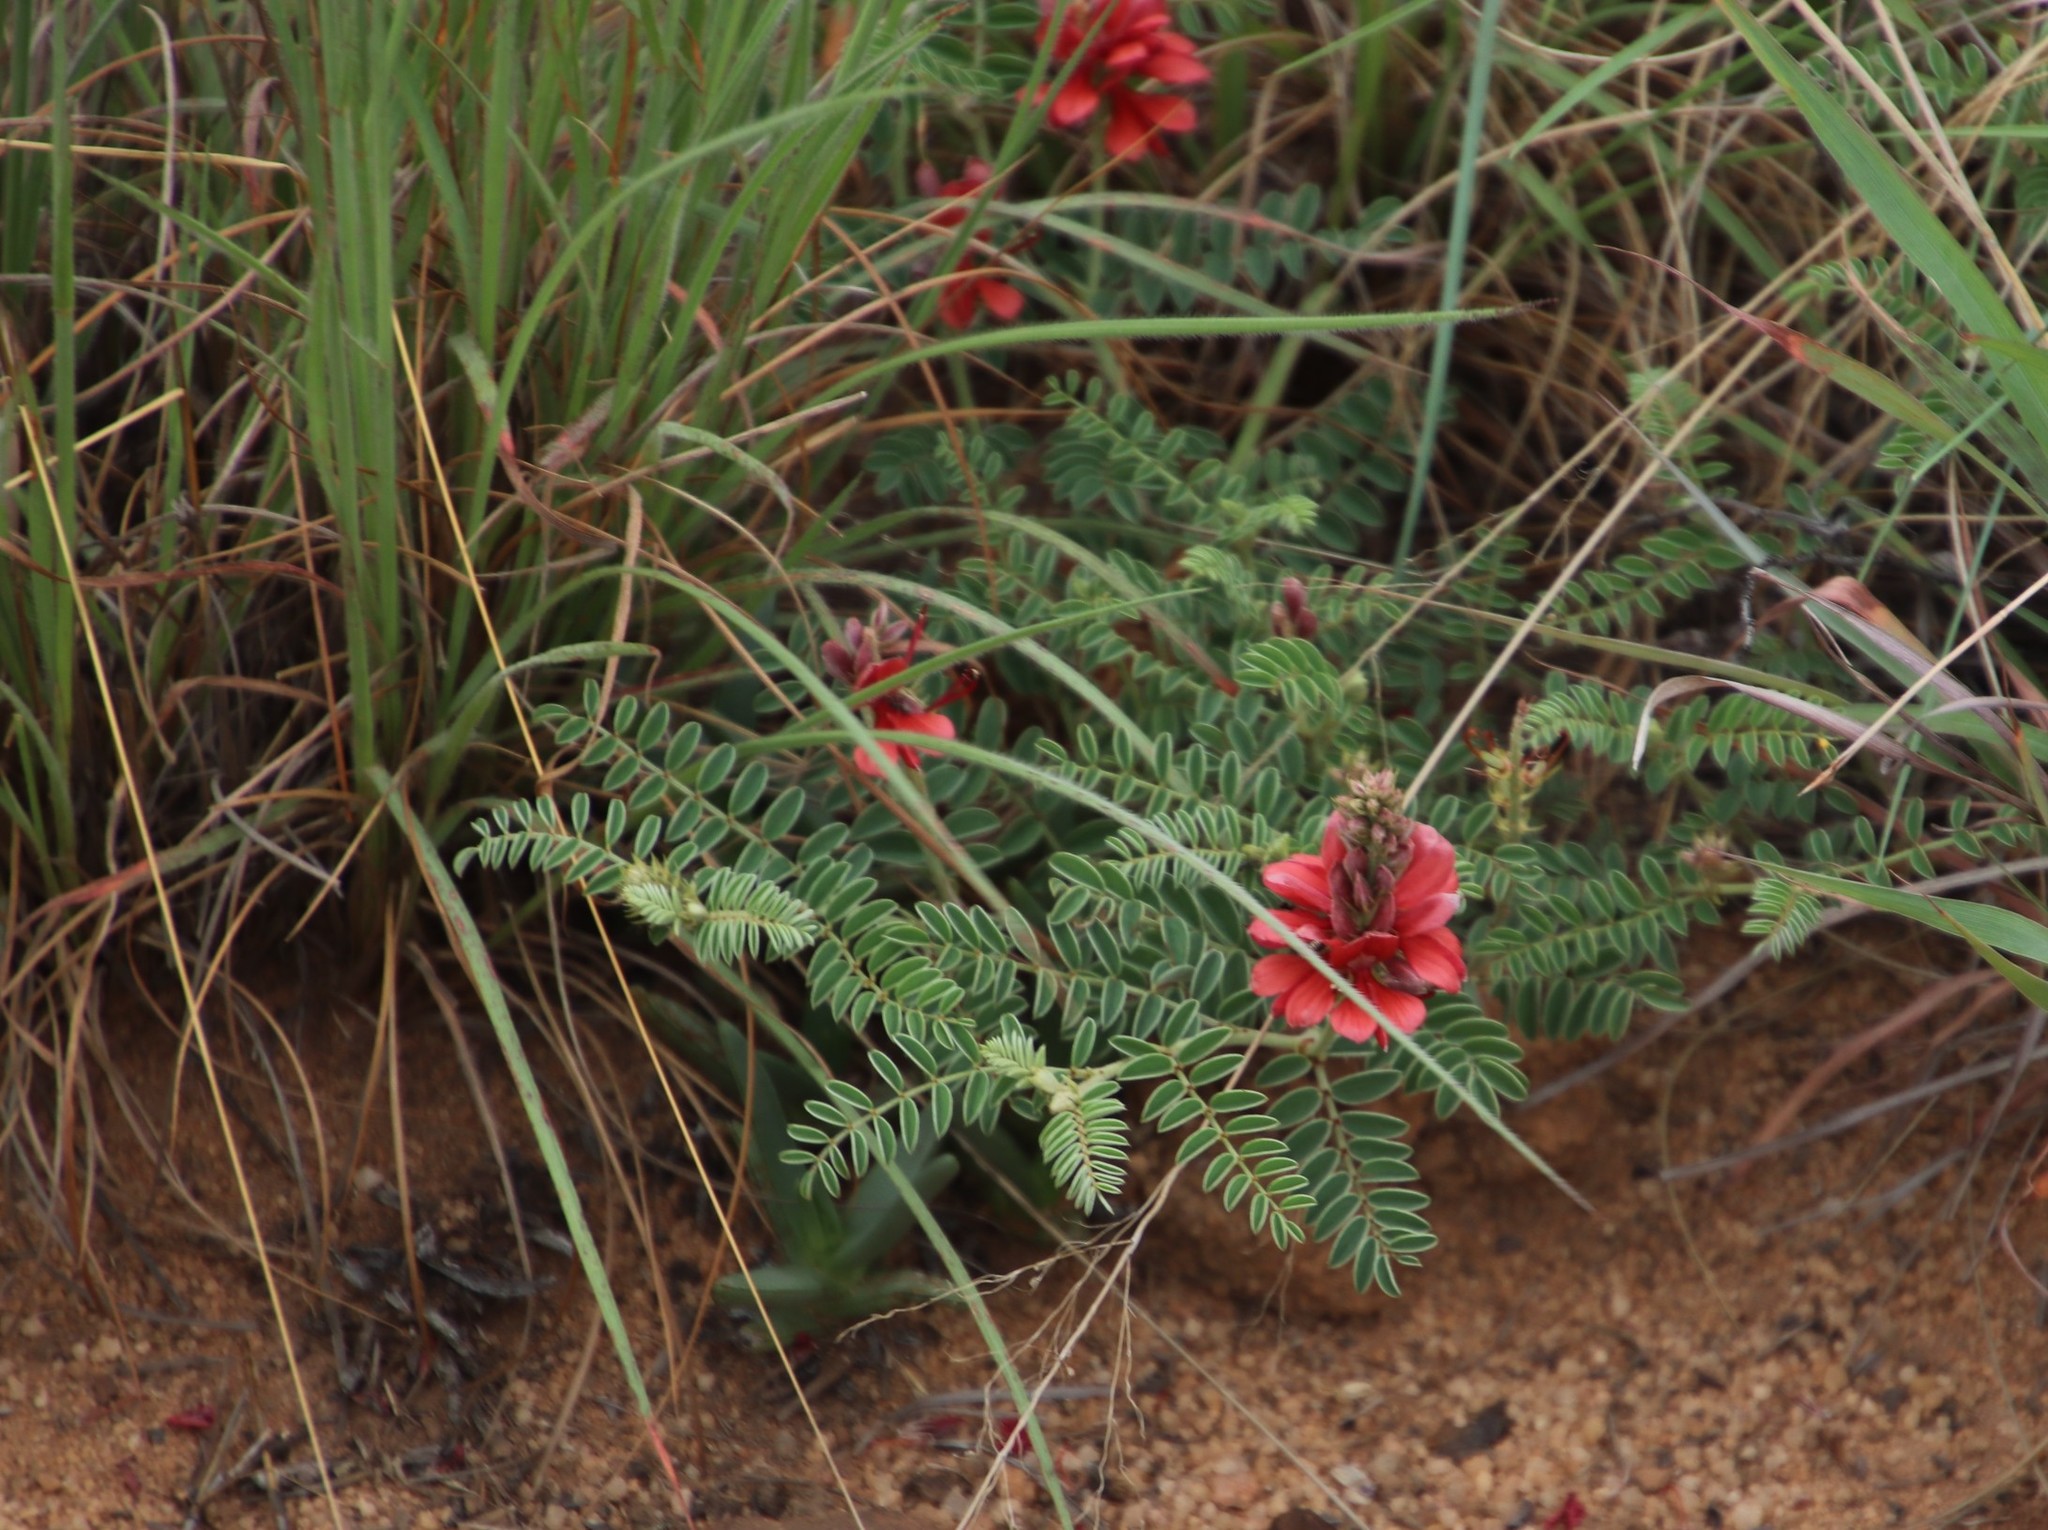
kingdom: Plantae
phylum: Tracheophyta
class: Magnoliopsida
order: Fabales
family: Fabaceae
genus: Indigofera
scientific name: Indigofera oxytropis
